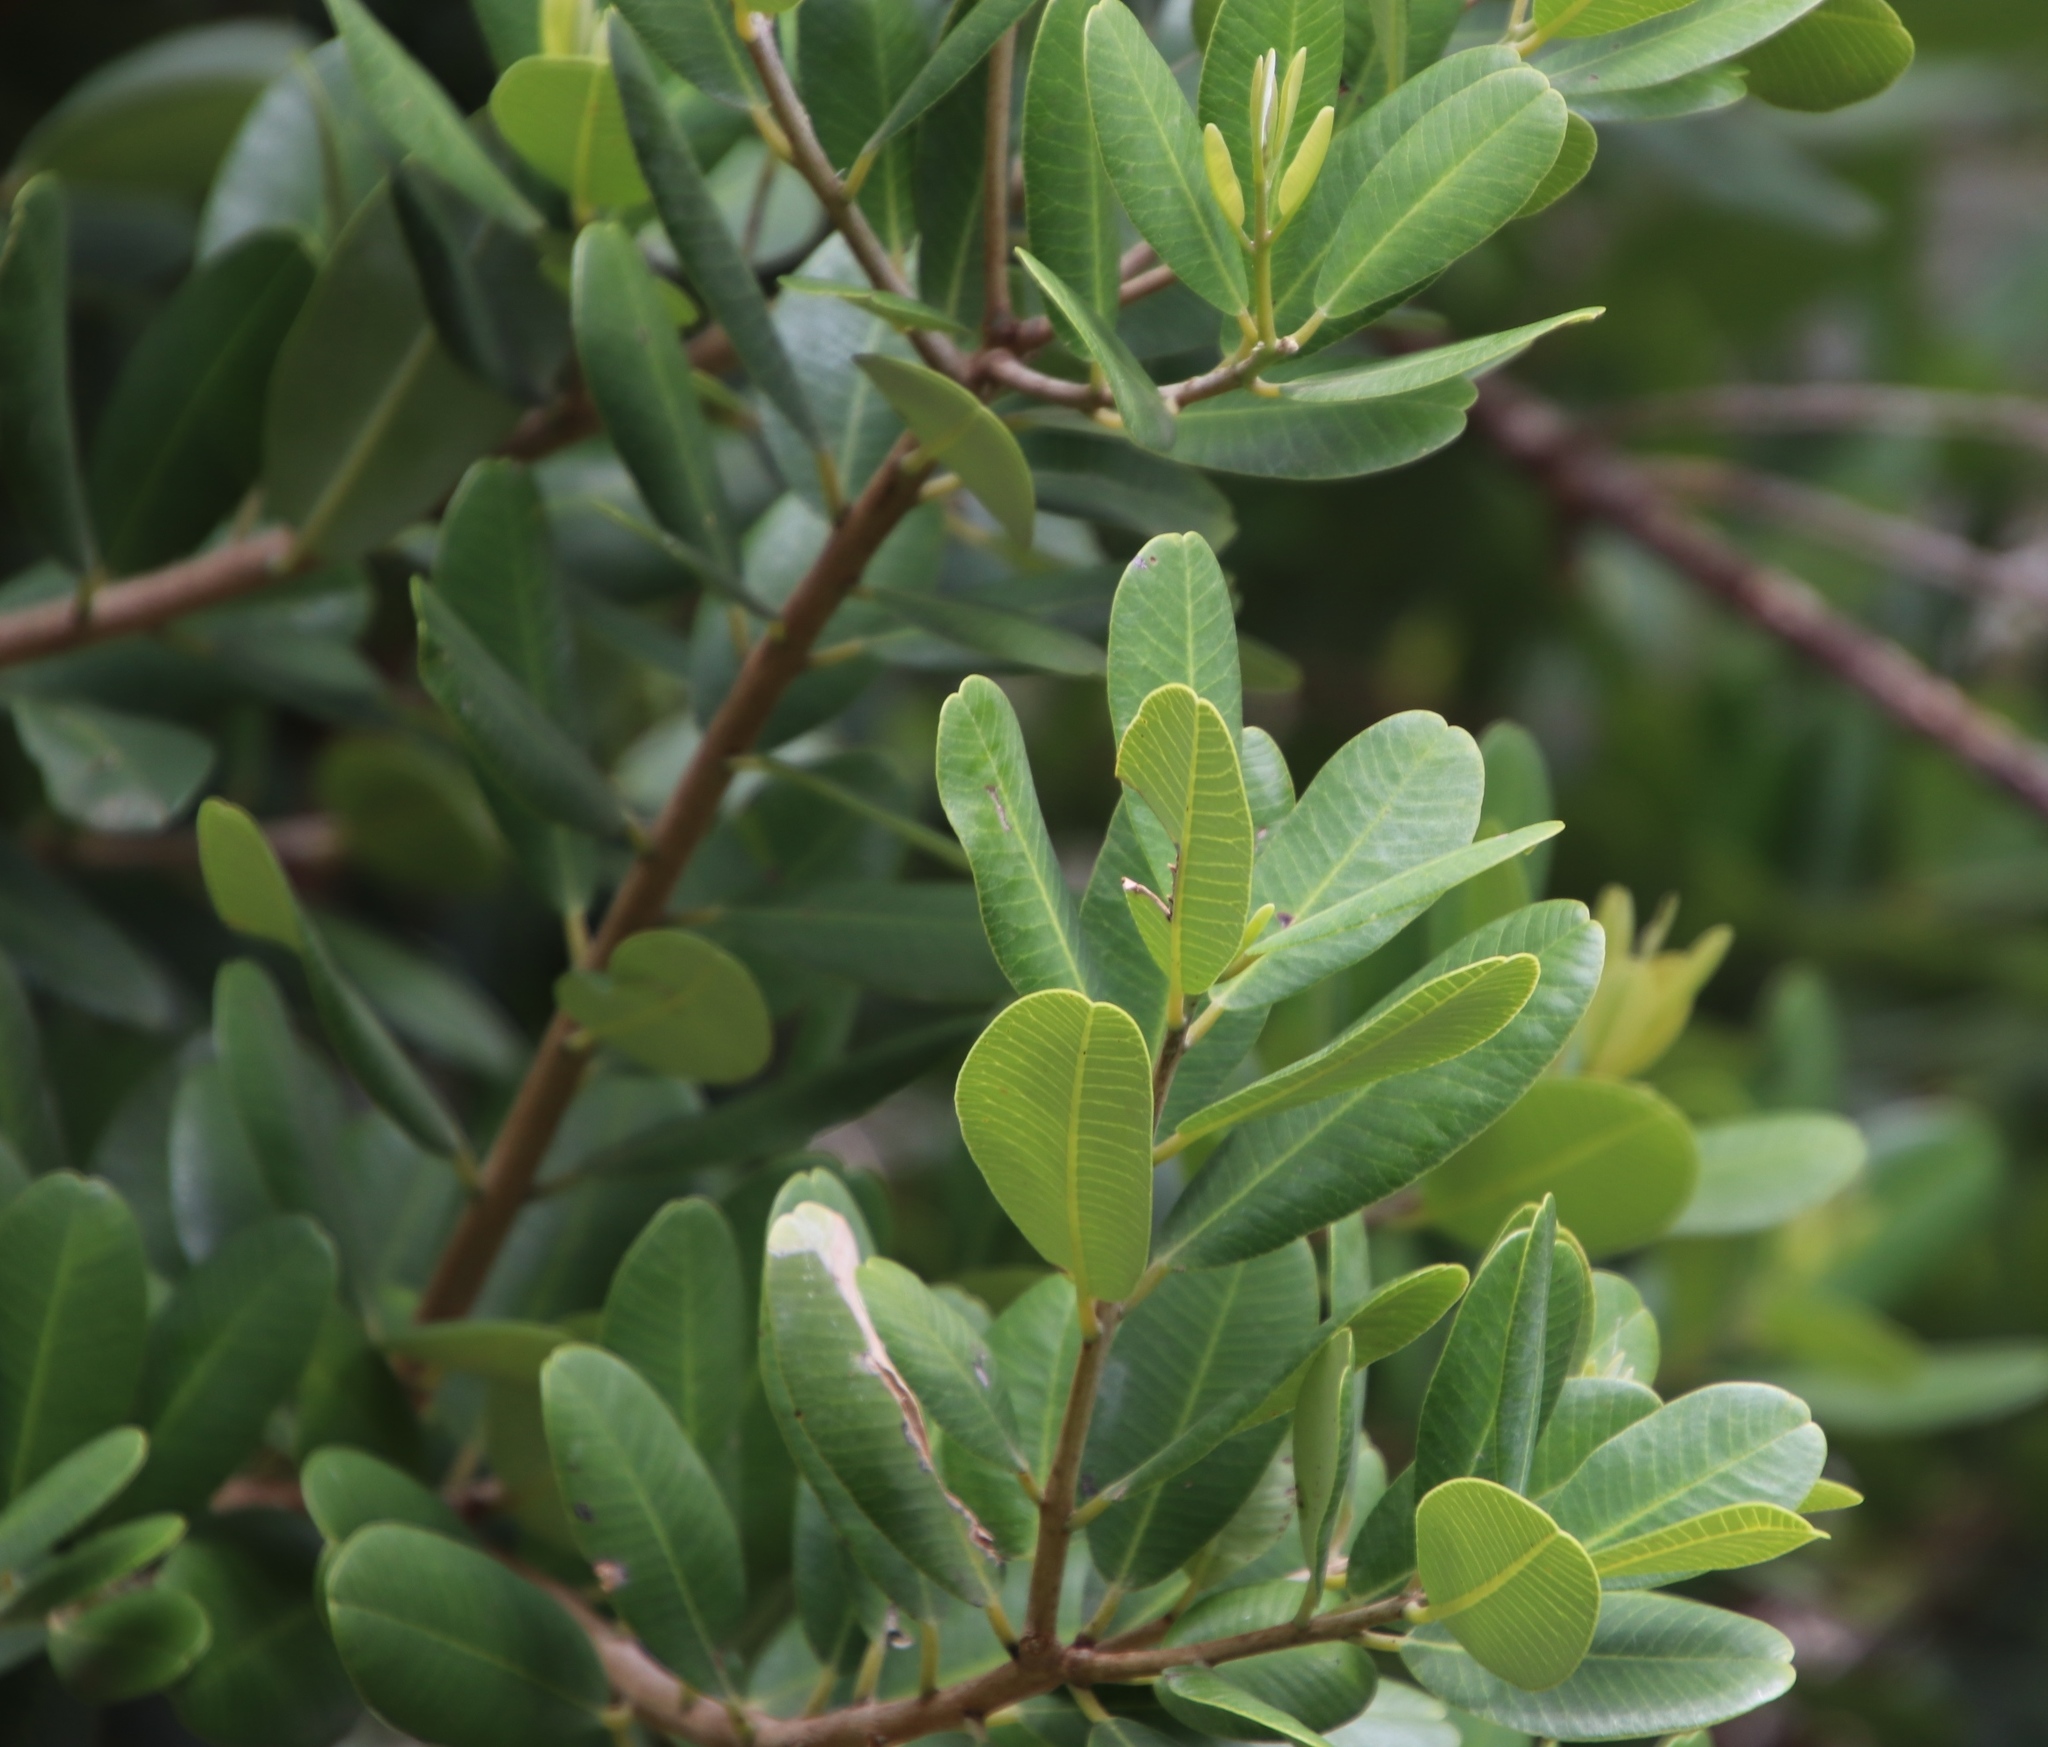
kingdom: Plantae
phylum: Tracheophyta
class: Magnoliopsida
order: Sapindales
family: Anacardiaceae
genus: Heeria
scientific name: Heeria argentea
